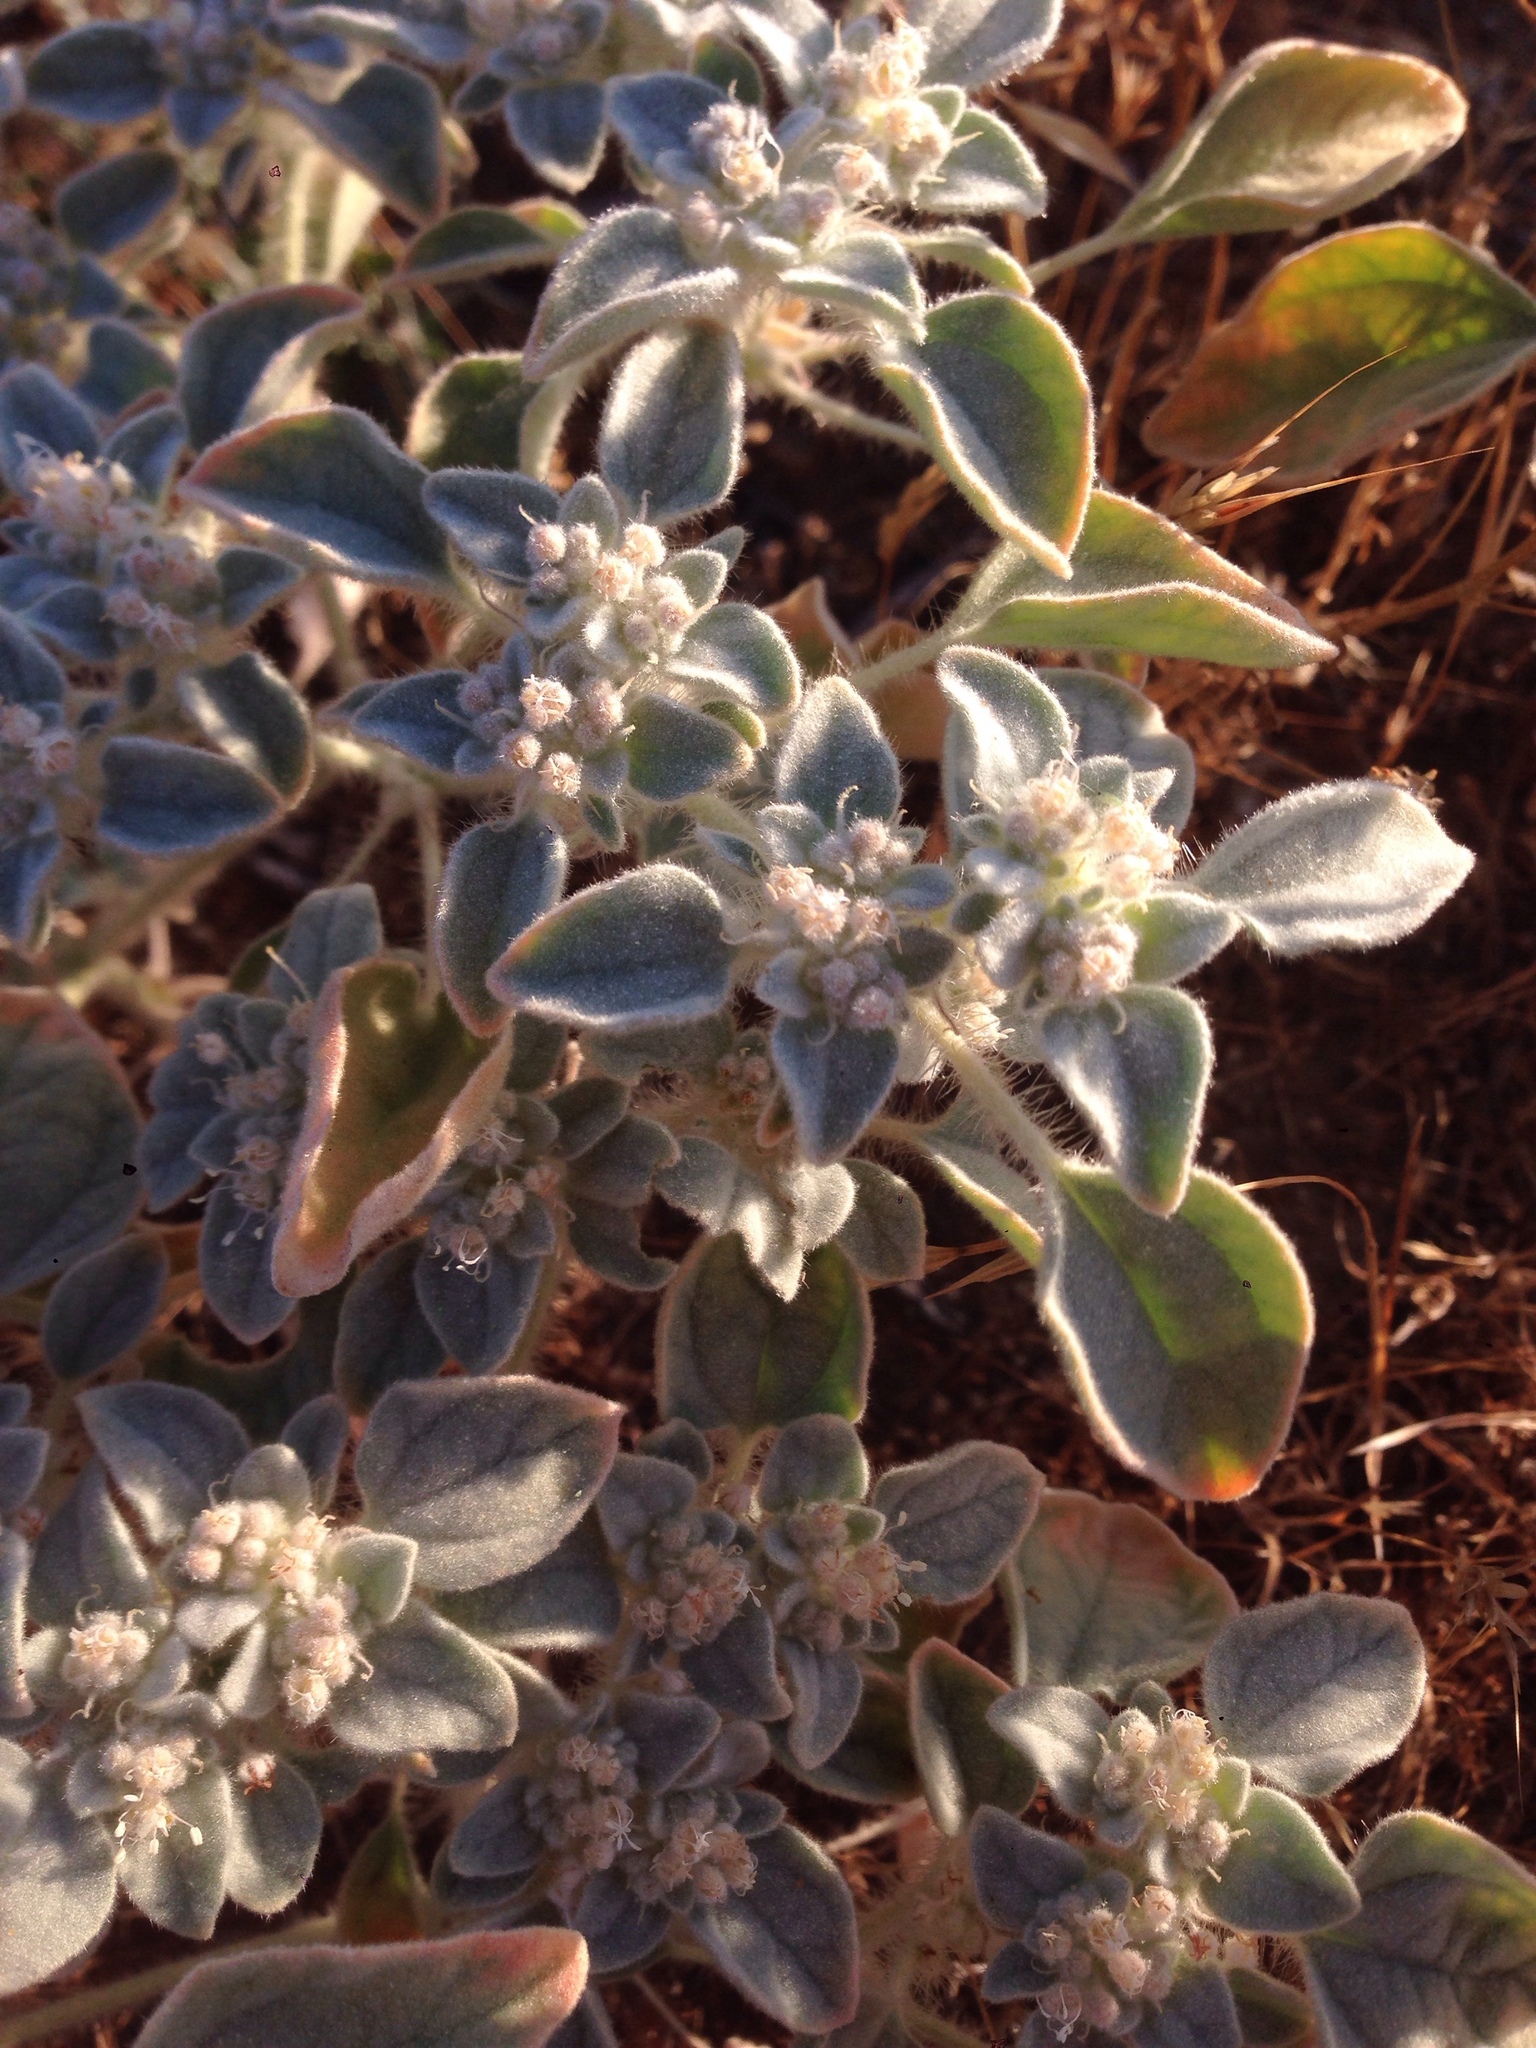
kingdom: Plantae
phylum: Tracheophyta
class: Magnoliopsida
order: Malpighiales
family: Euphorbiaceae
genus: Croton
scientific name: Croton setiger
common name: Dove weed
